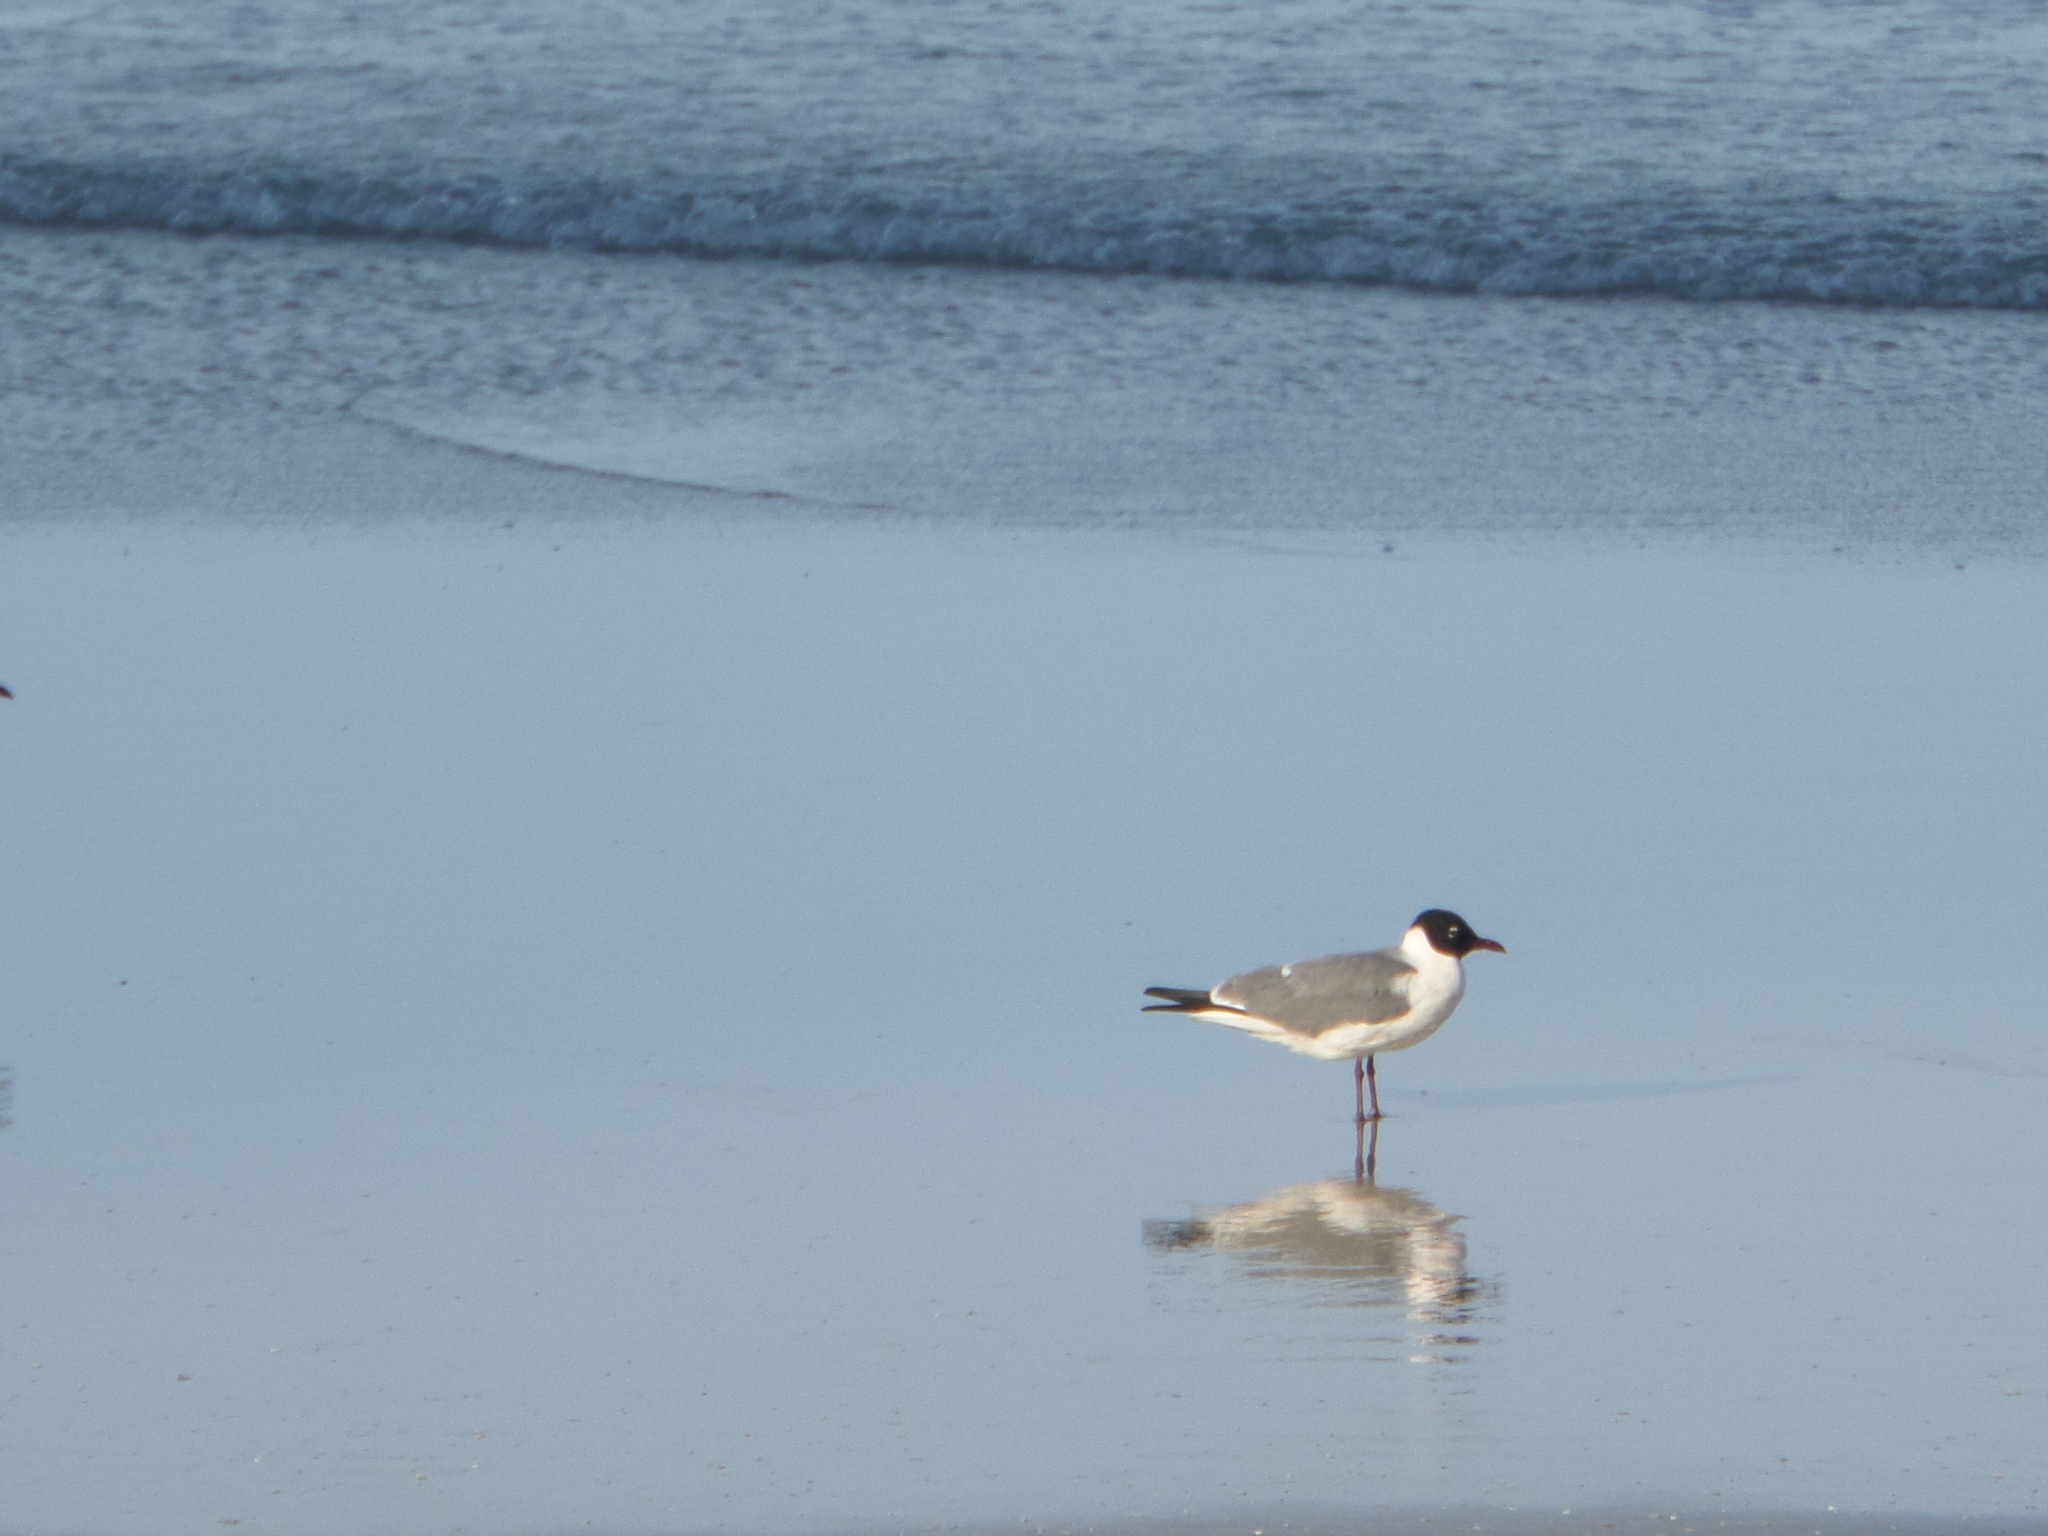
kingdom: Animalia
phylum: Chordata
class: Aves
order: Charadriiformes
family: Laridae
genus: Leucophaeus
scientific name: Leucophaeus atricilla
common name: Laughing gull
